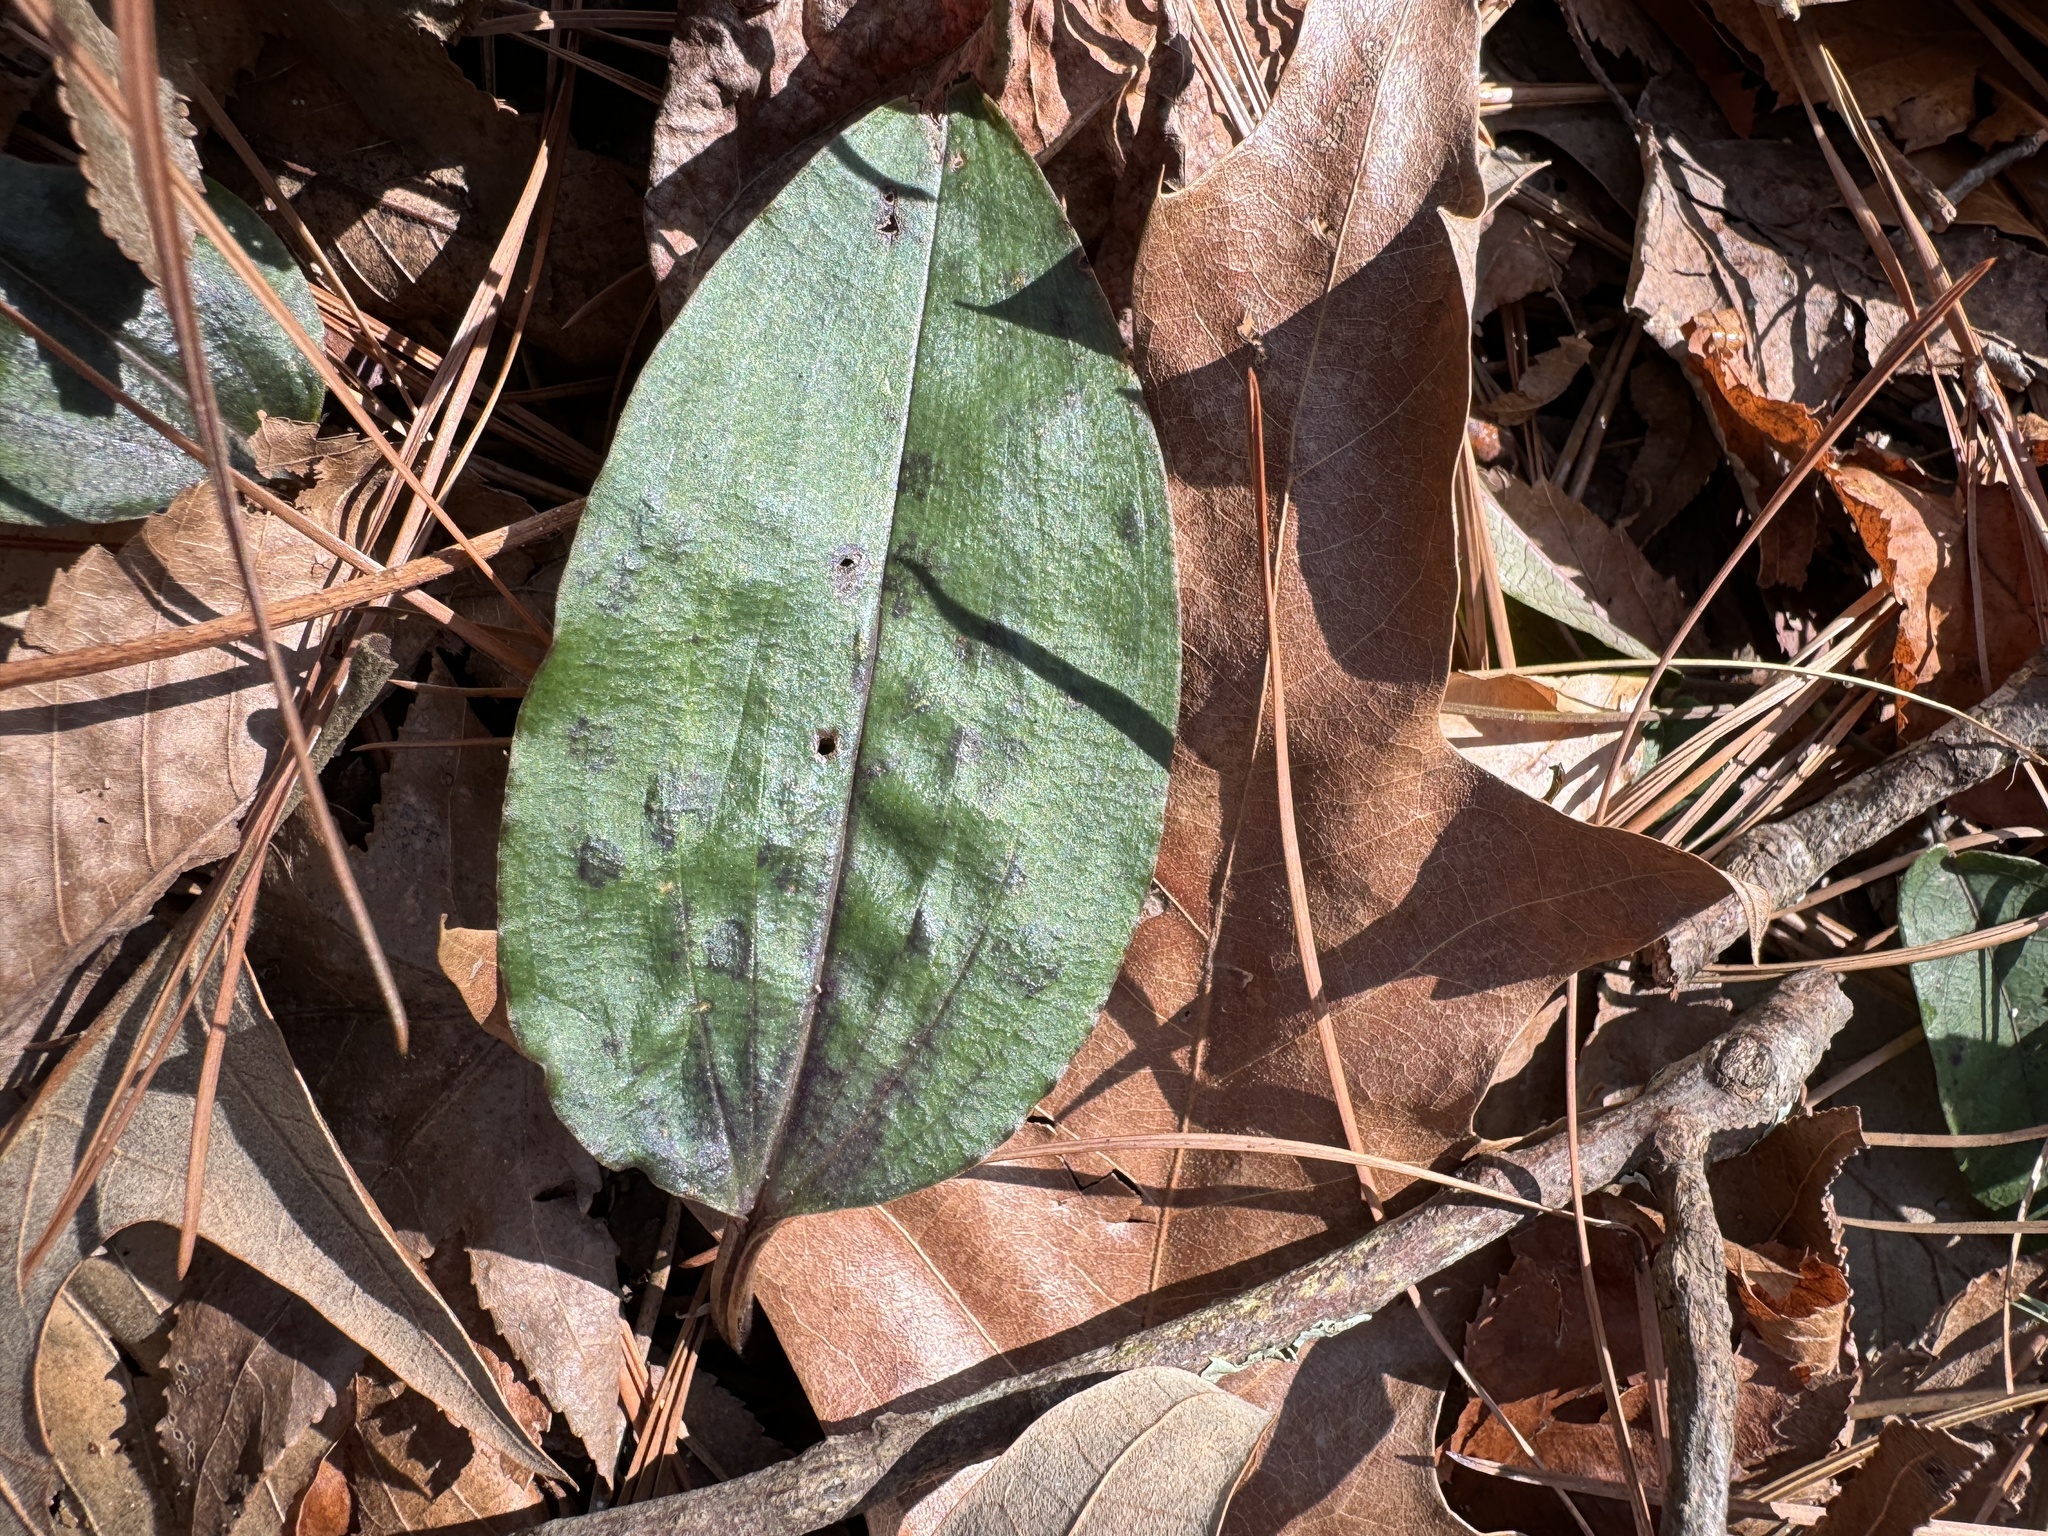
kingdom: Plantae
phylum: Tracheophyta
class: Liliopsida
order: Asparagales
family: Orchidaceae
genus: Tipularia
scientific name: Tipularia discolor
